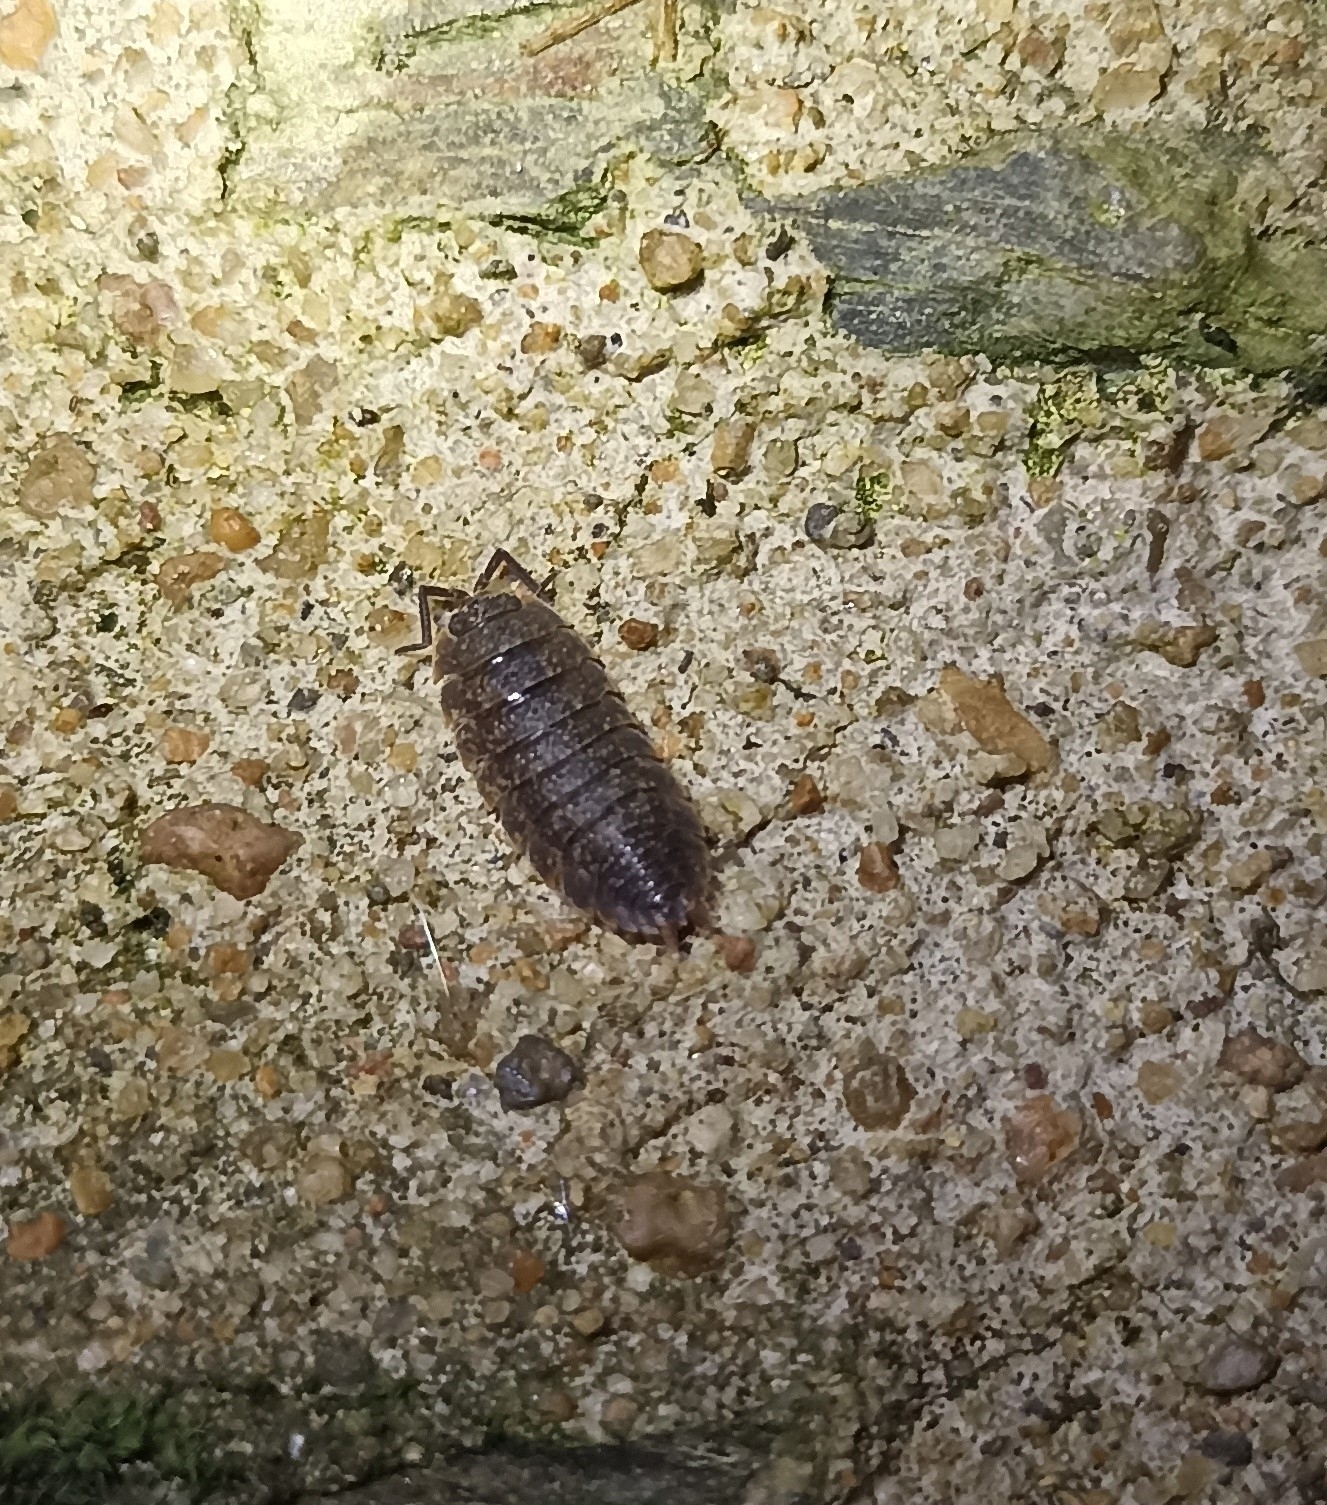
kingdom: Animalia
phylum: Arthropoda
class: Malacostraca
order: Isopoda
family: Porcellionidae
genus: Porcellio
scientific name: Porcellio scaber
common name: Common rough woodlouse
